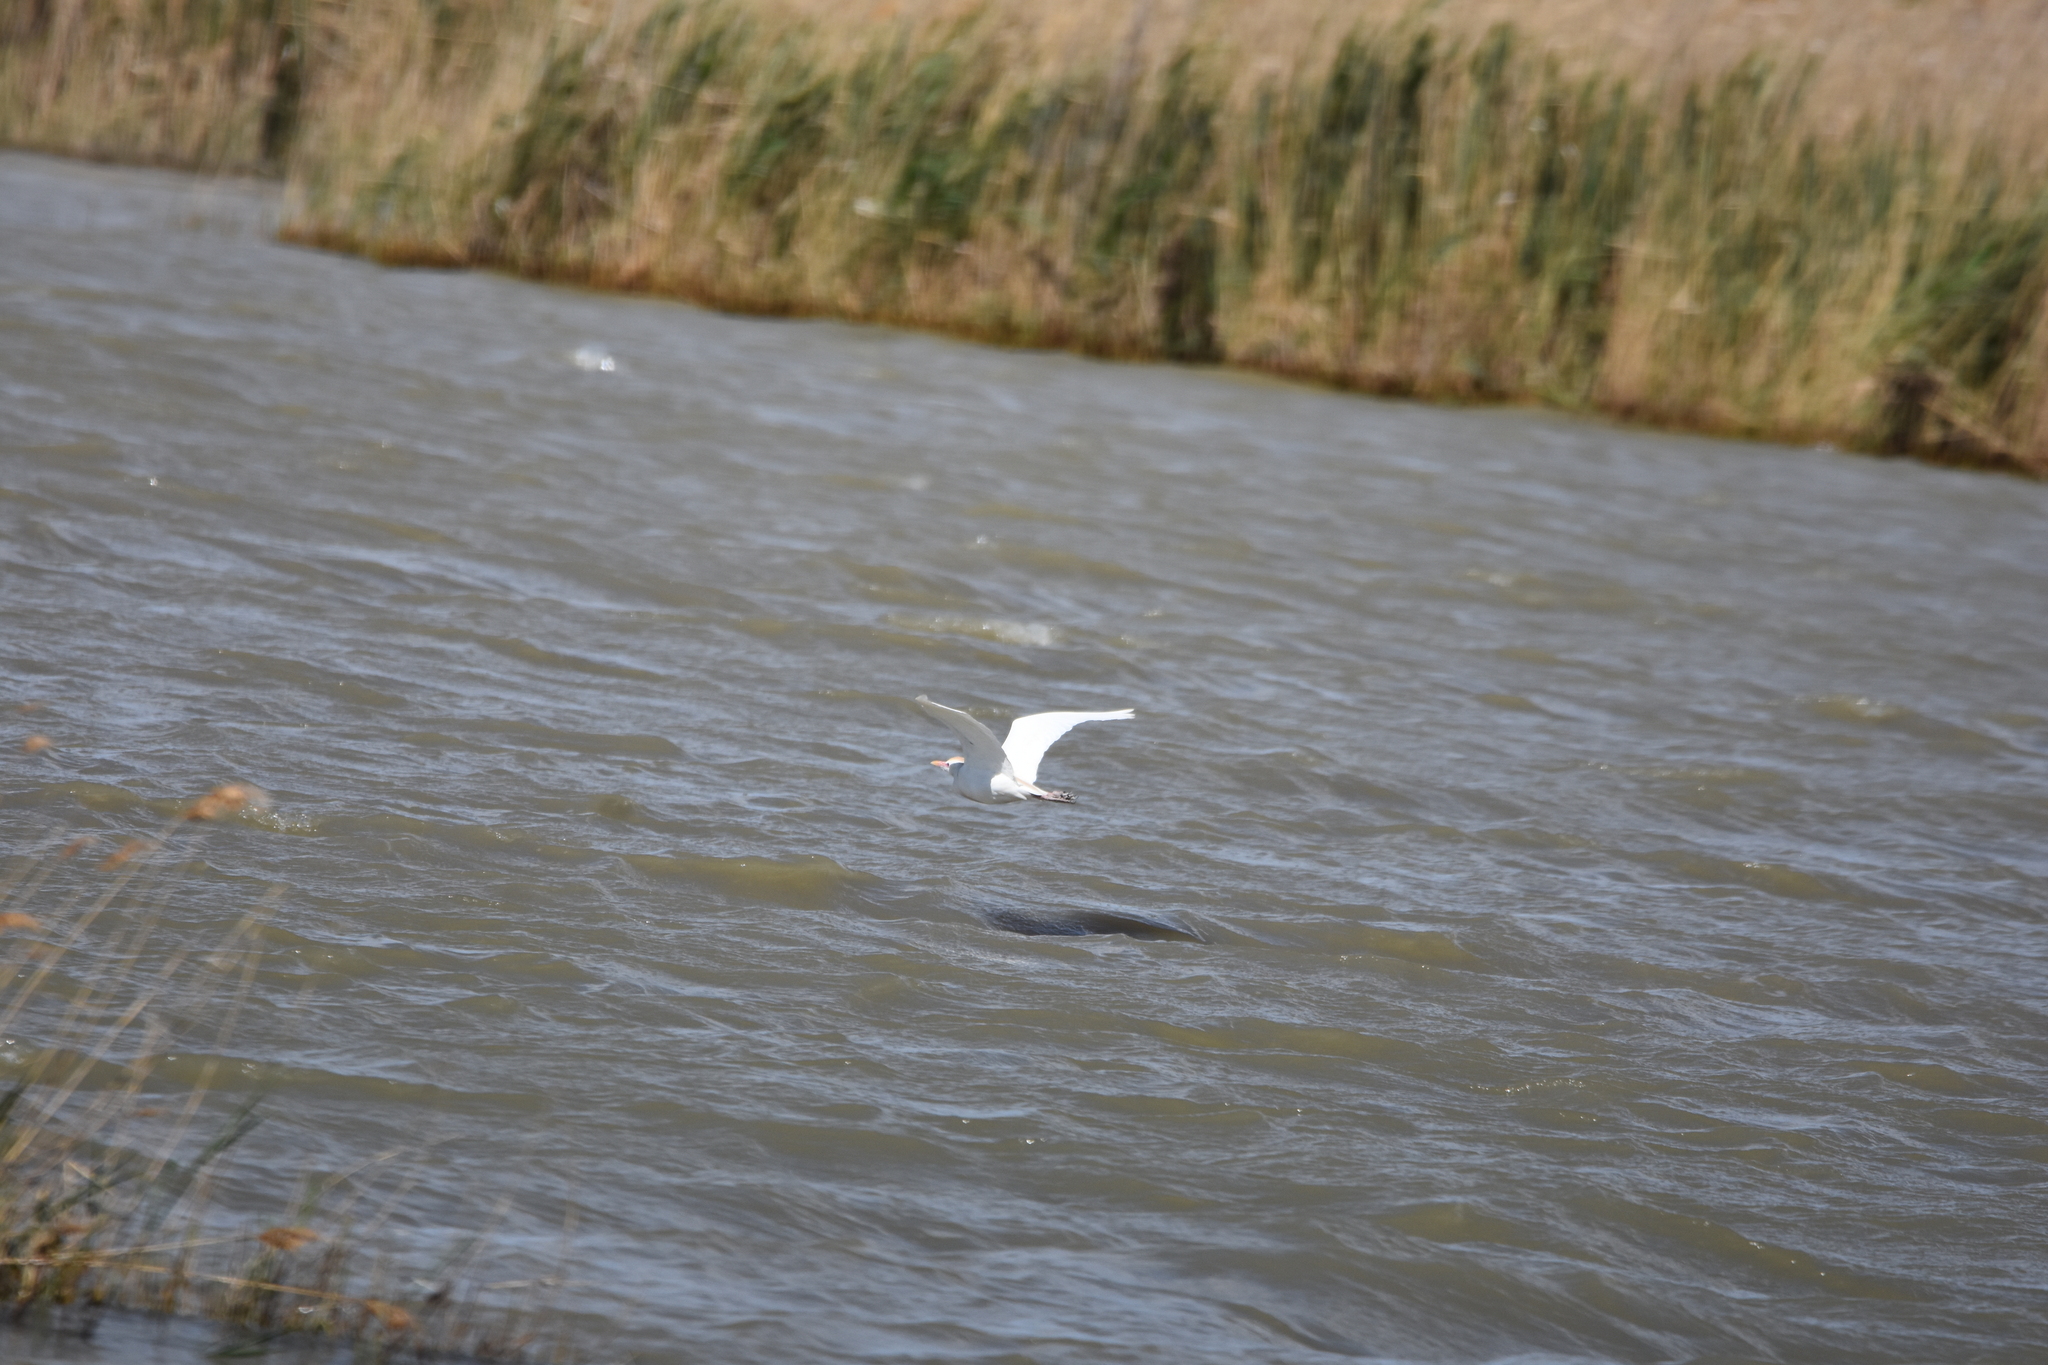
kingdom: Animalia
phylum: Chordata
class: Aves
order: Pelecaniformes
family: Ardeidae
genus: Bubulcus
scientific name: Bubulcus ibis
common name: Cattle egret
